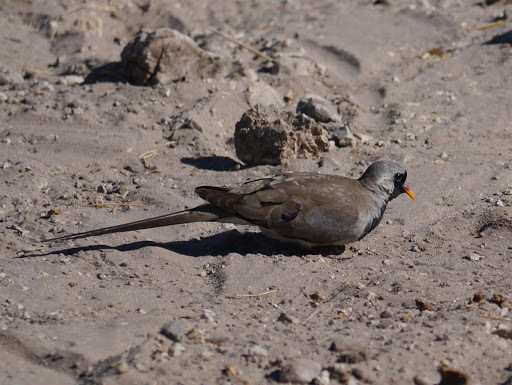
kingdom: Animalia
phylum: Chordata
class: Aves
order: Columbiformes
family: Columbidae
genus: Oena
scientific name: Oena capensis
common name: Namaqua dove
